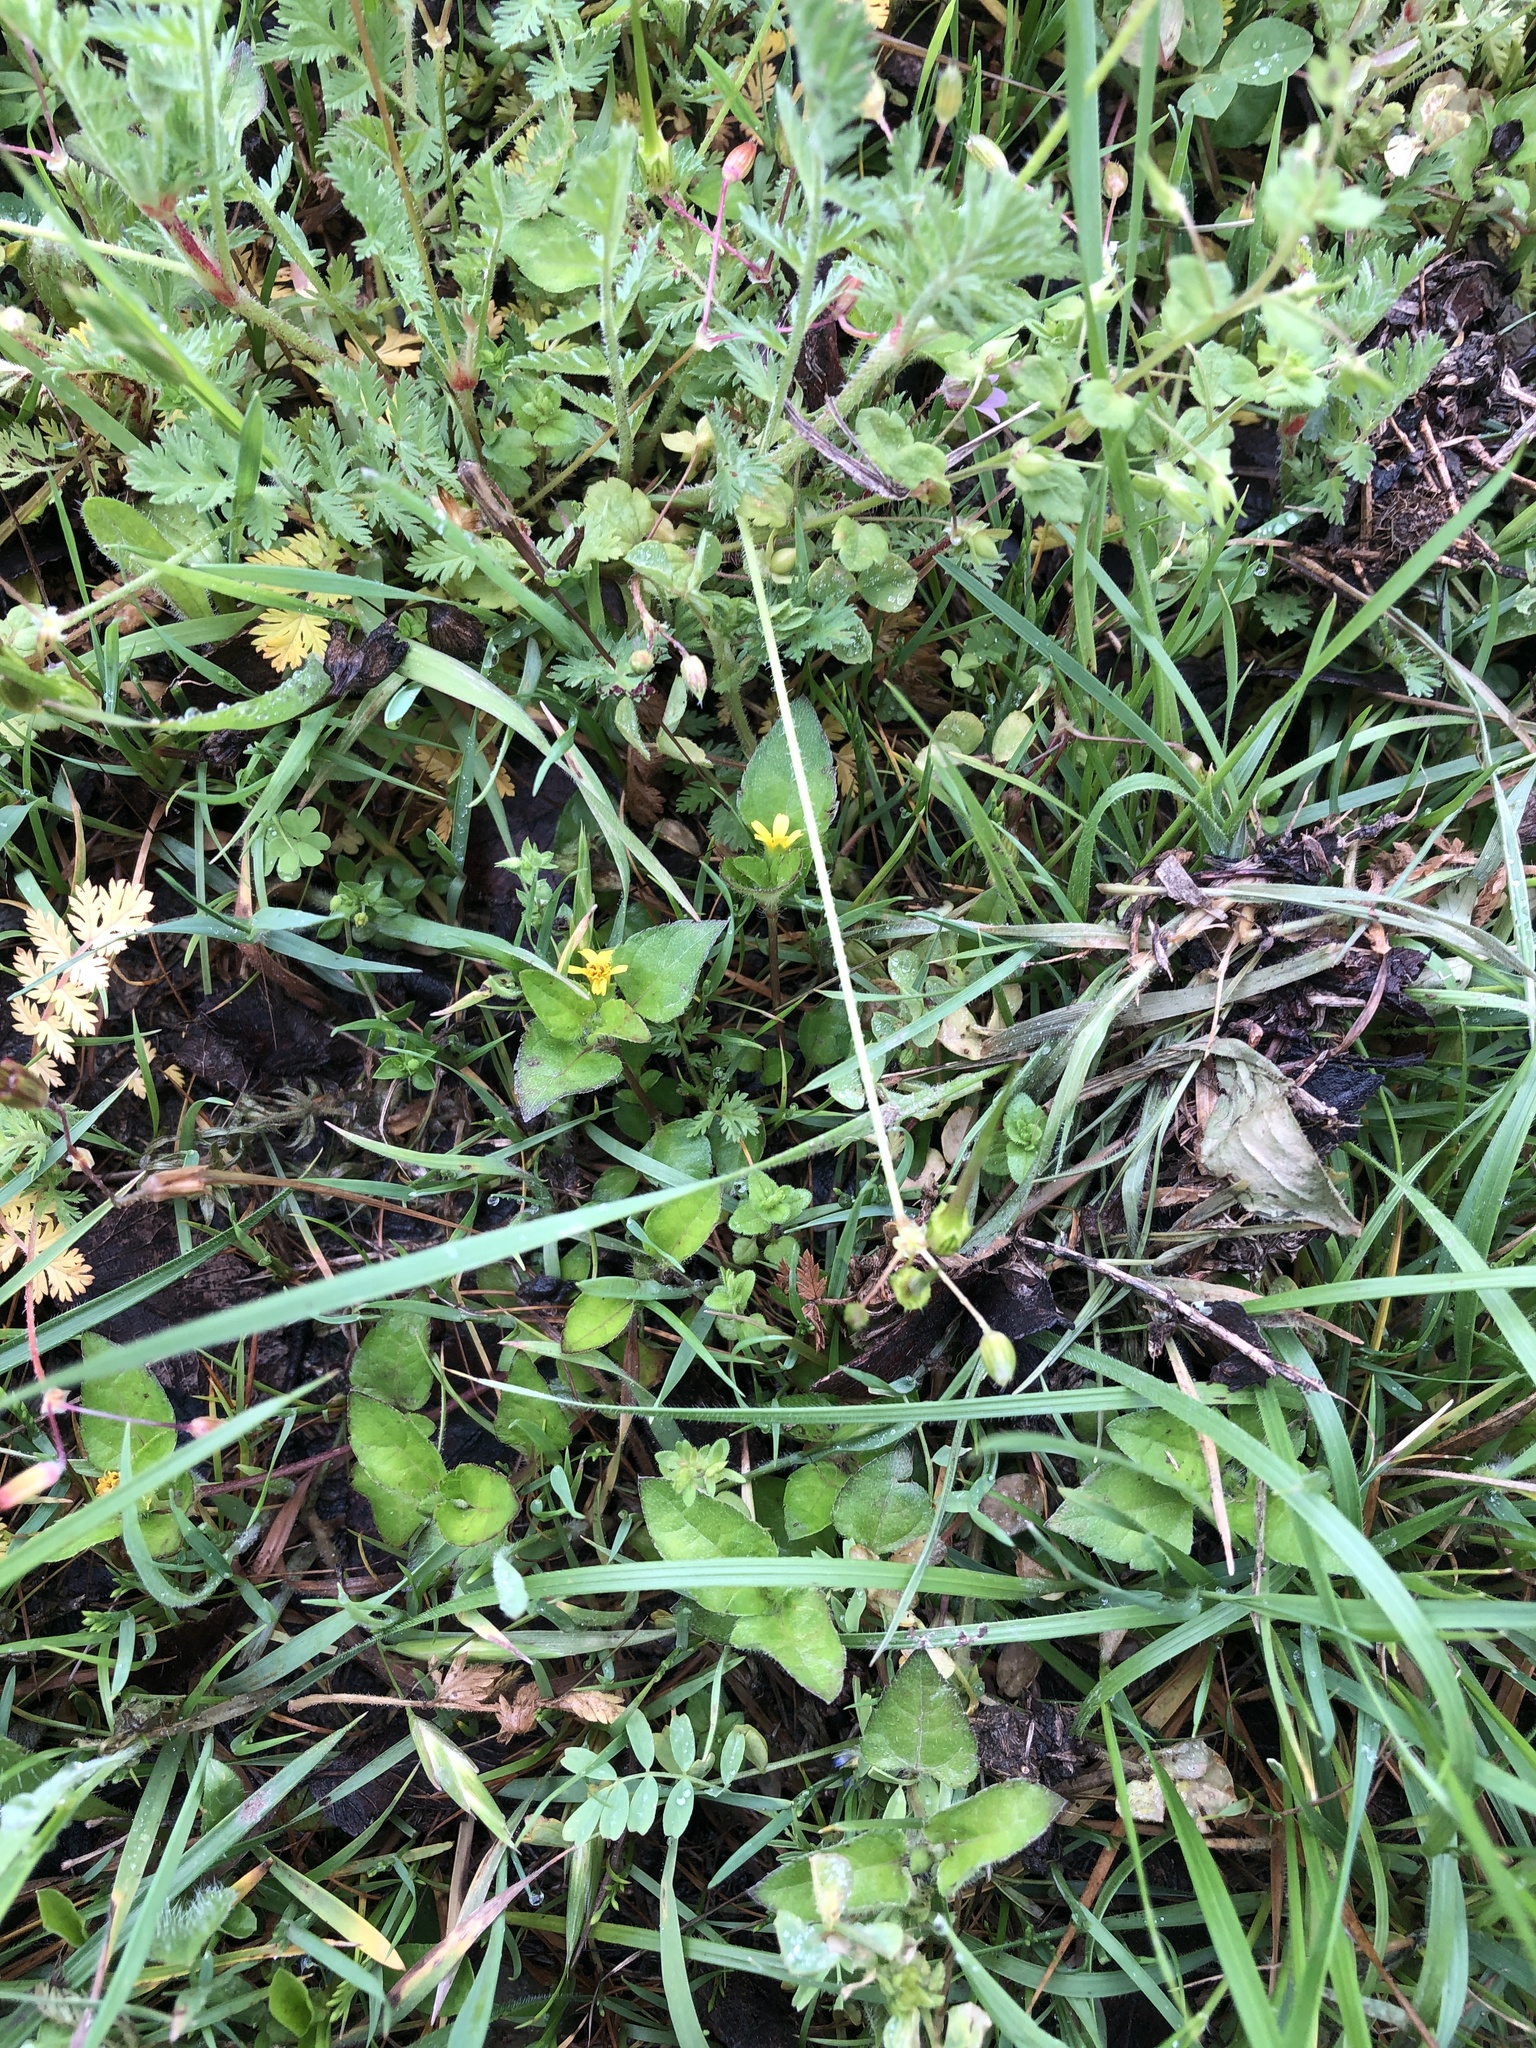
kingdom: Plantae
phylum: Tracheophyta
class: Magnoliopsida
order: Asterales
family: Asteraceae
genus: Calyptocarpus
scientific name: Calyptocarpus vialis
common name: Straggler daisy
